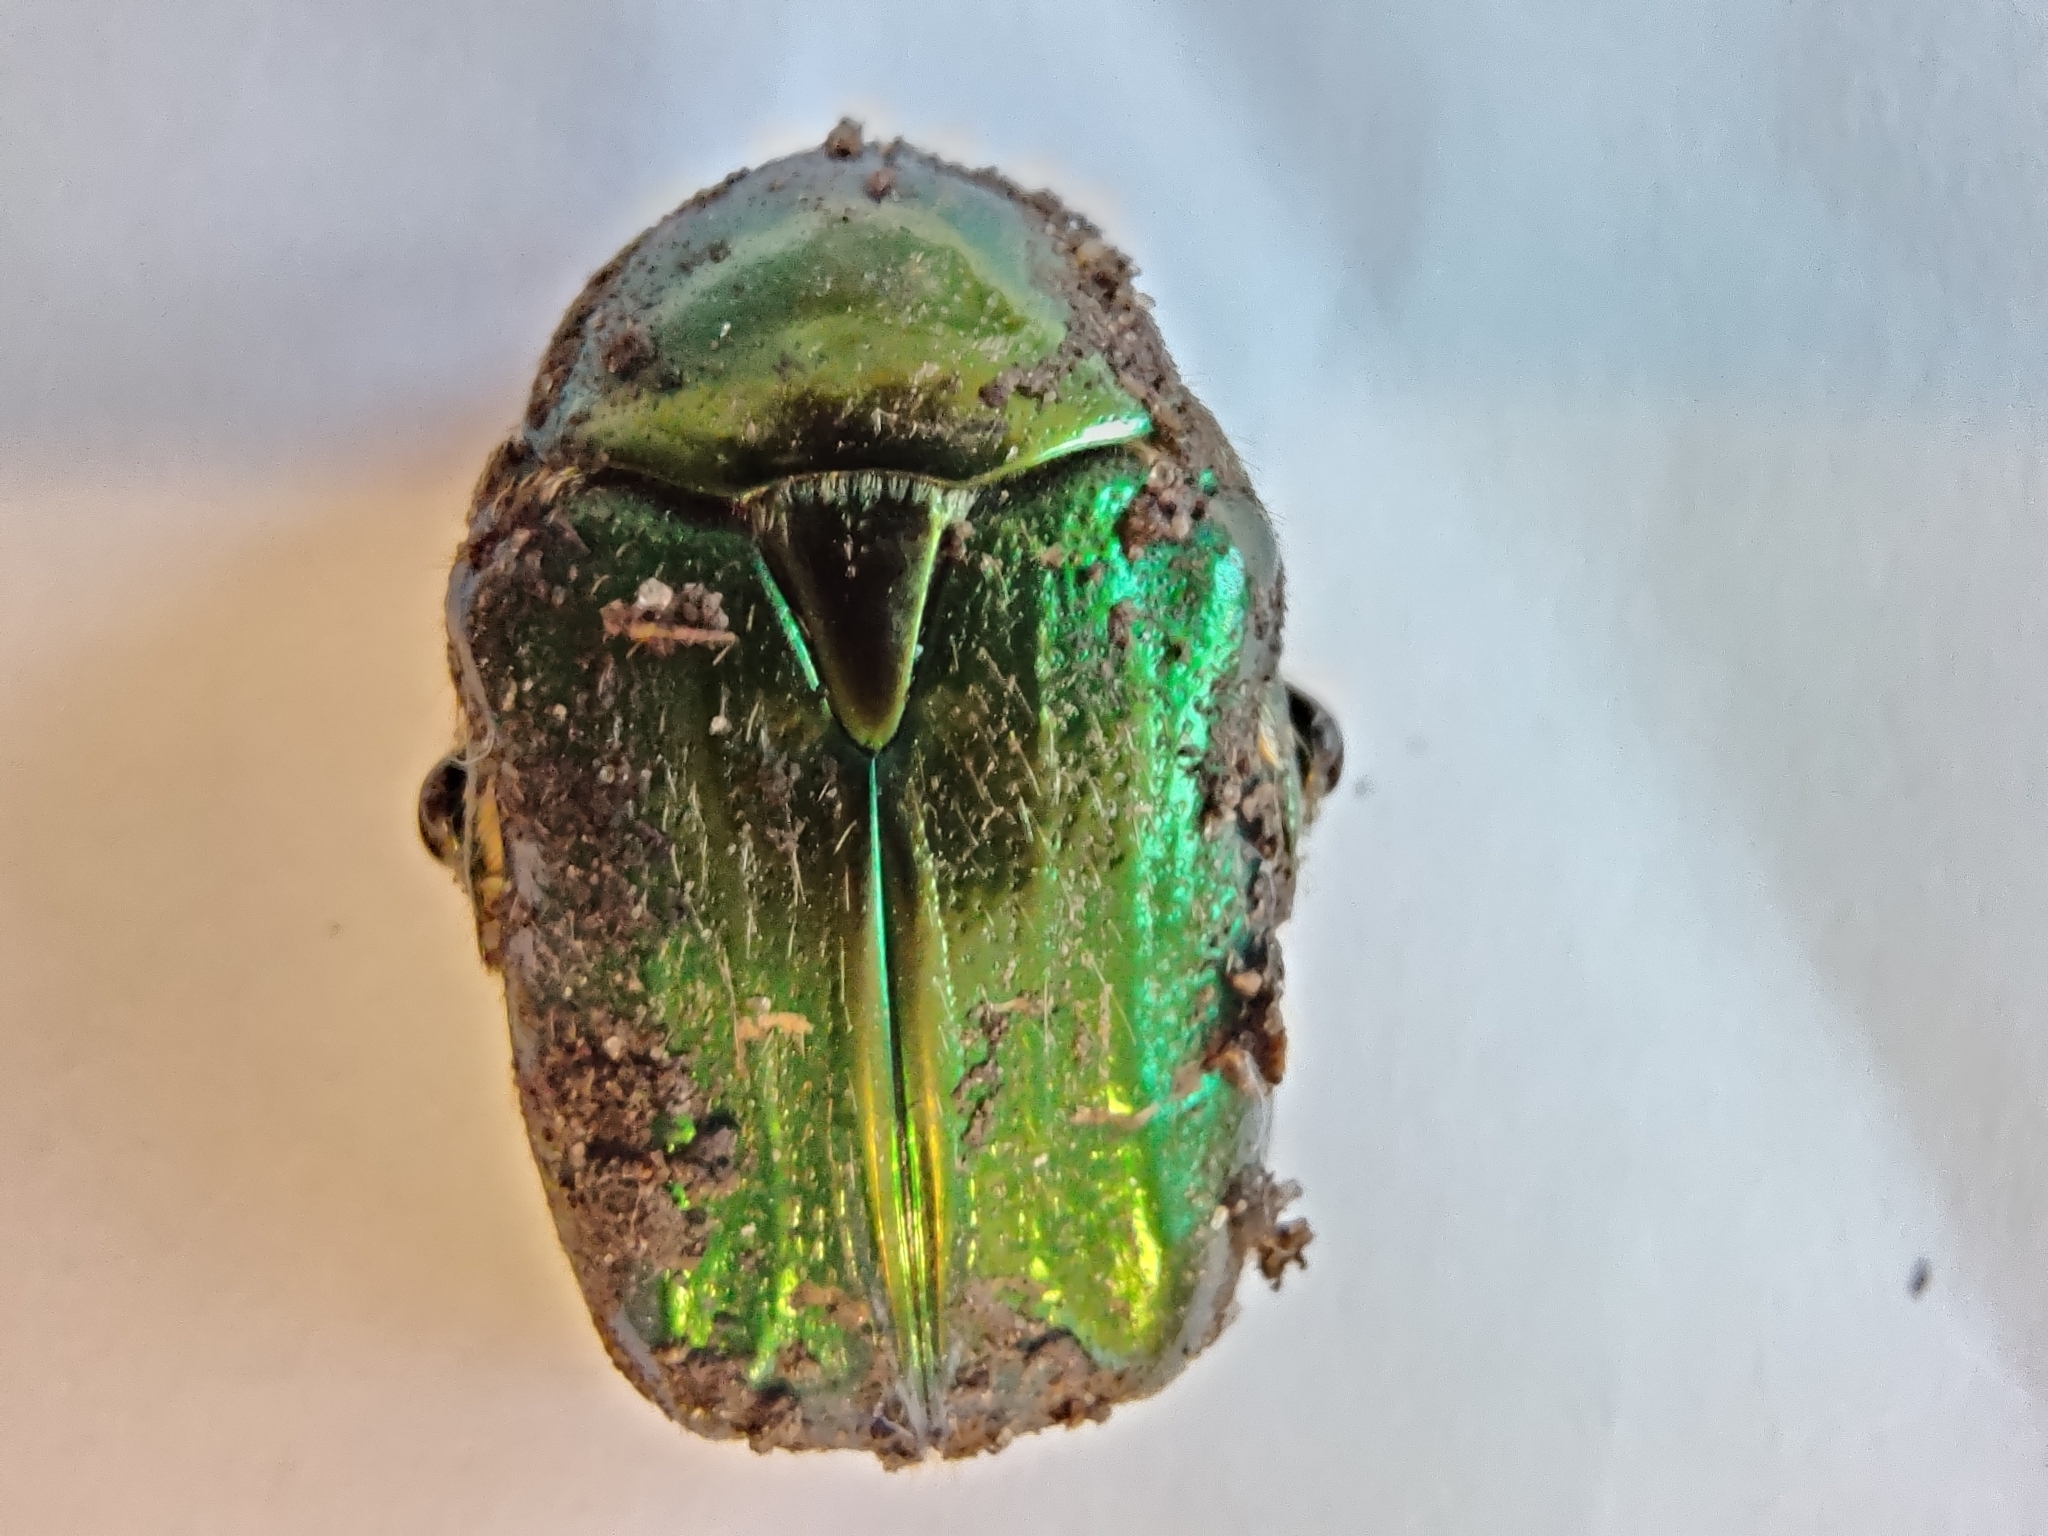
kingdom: Animalia
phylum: Arthropoda
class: Insecta
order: Coleoptera
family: Scarabaeidae
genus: Cetonia
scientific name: Cetonia aurata
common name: Rose chafer
